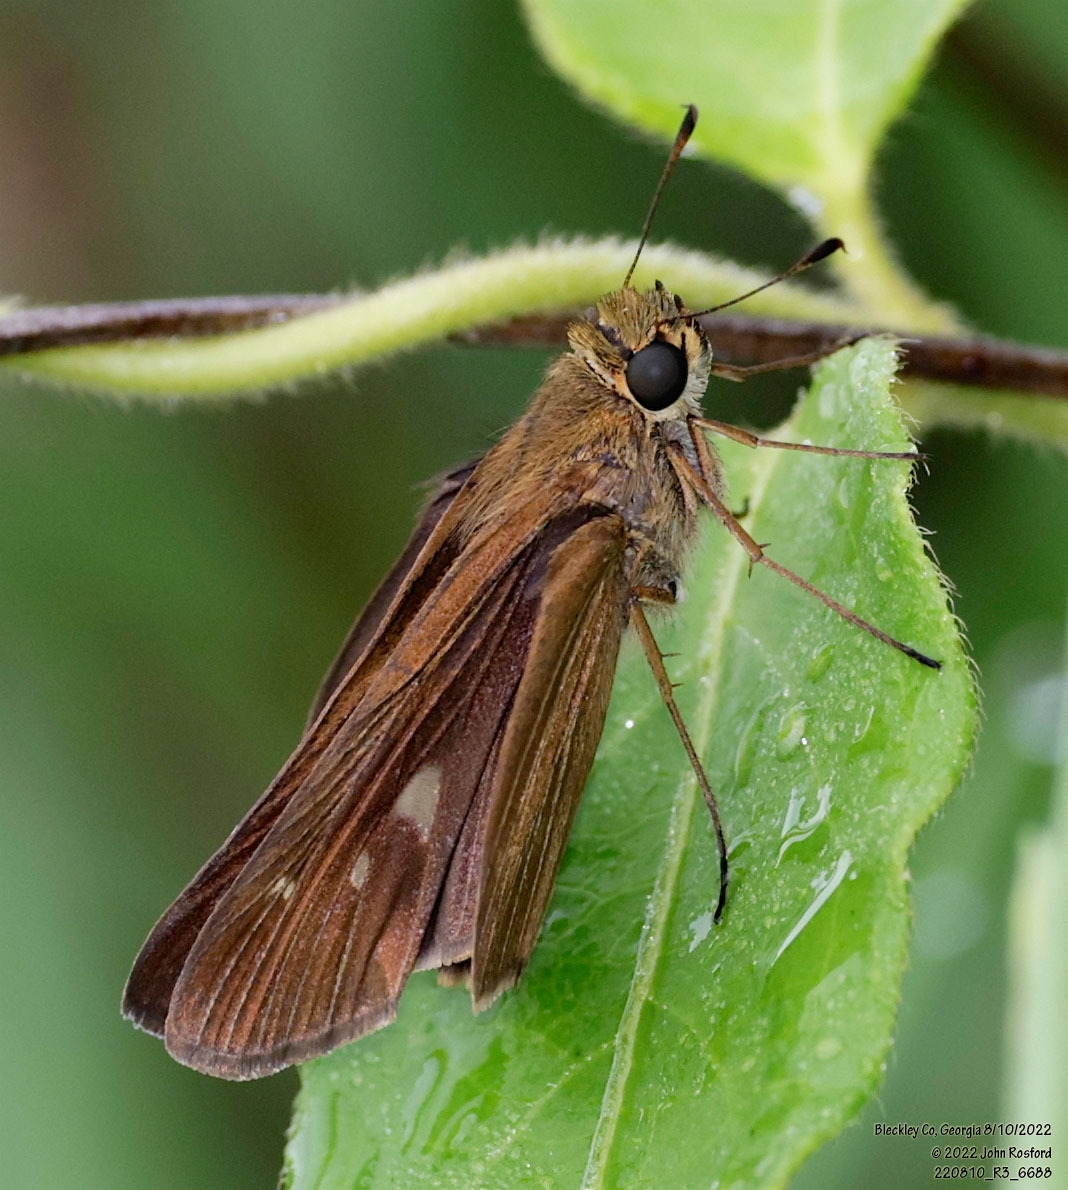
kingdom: Animalia
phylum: Arthropoda
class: Insecta
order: Lepidoptera
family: Hesperiidae
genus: Panoquina
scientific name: Panoquina ocola
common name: Ocola skipper
